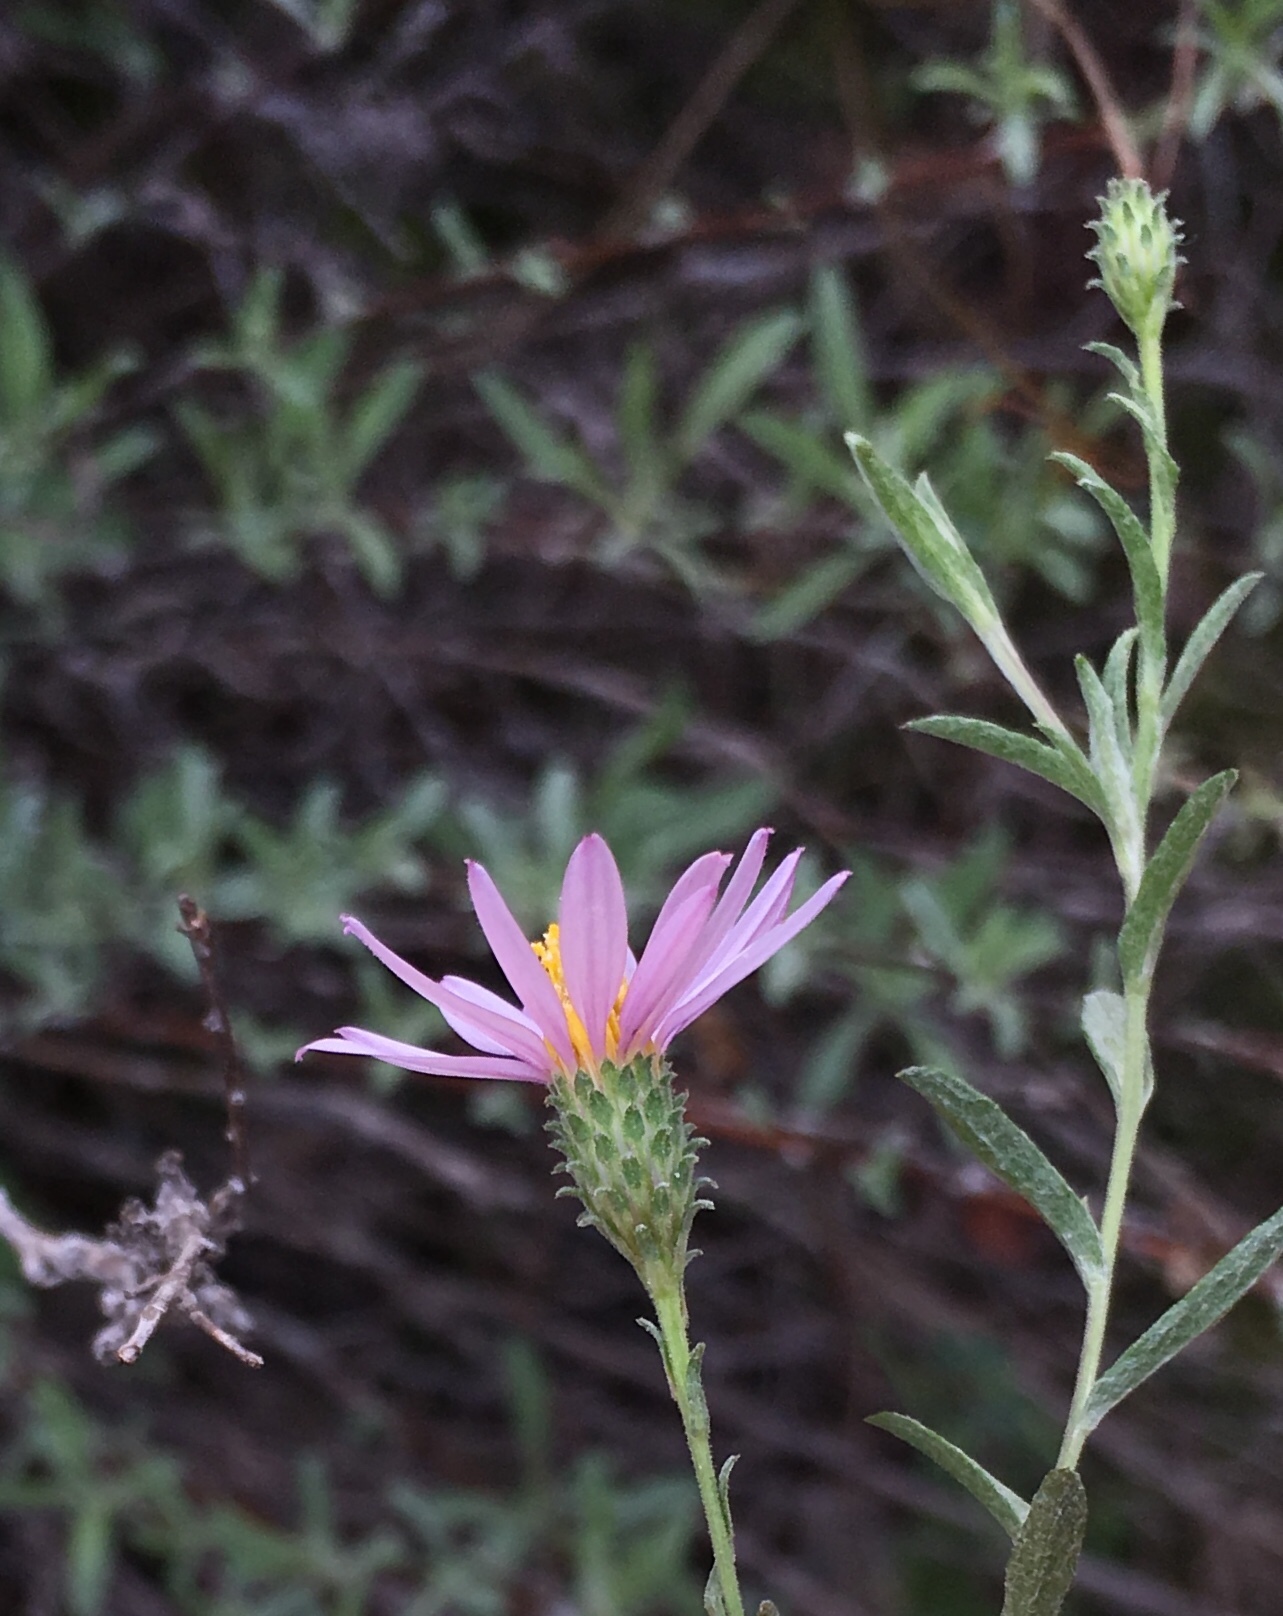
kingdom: Plantae
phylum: Tracheophyta
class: Magnoliopsida
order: Asterales
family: Asteraceae
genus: Corethrogyne
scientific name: Corethrogyne filaginifolia
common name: Sand-aster
